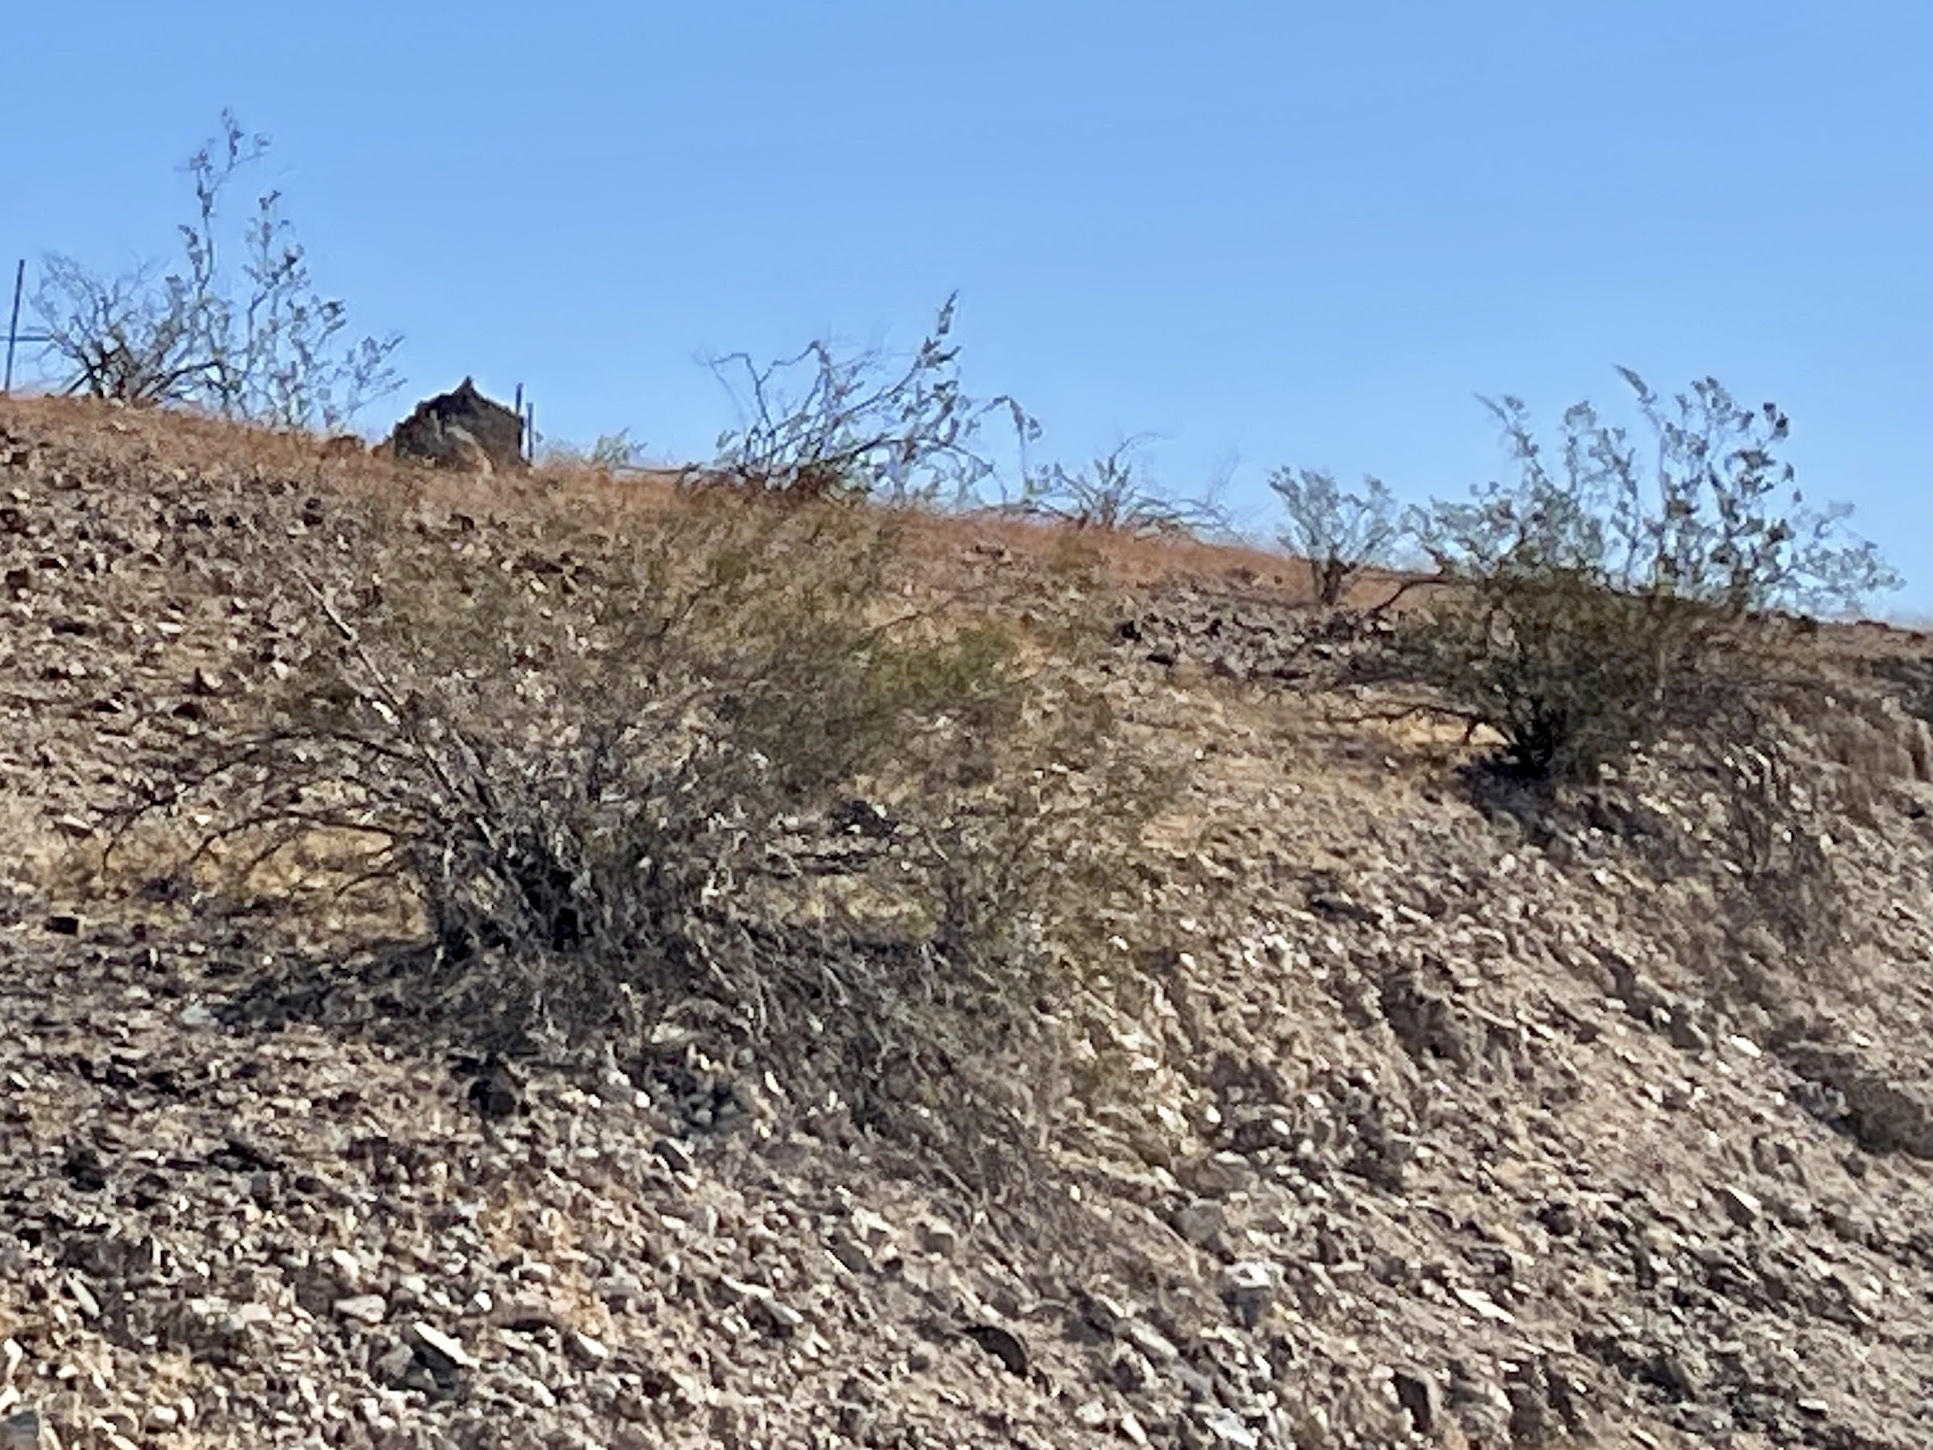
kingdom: Plantae
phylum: Tracheophyta
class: Magnoliopsida
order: Zygophyllales
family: Zygophyllaceae
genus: Larrea
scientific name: Larrea tridentata
